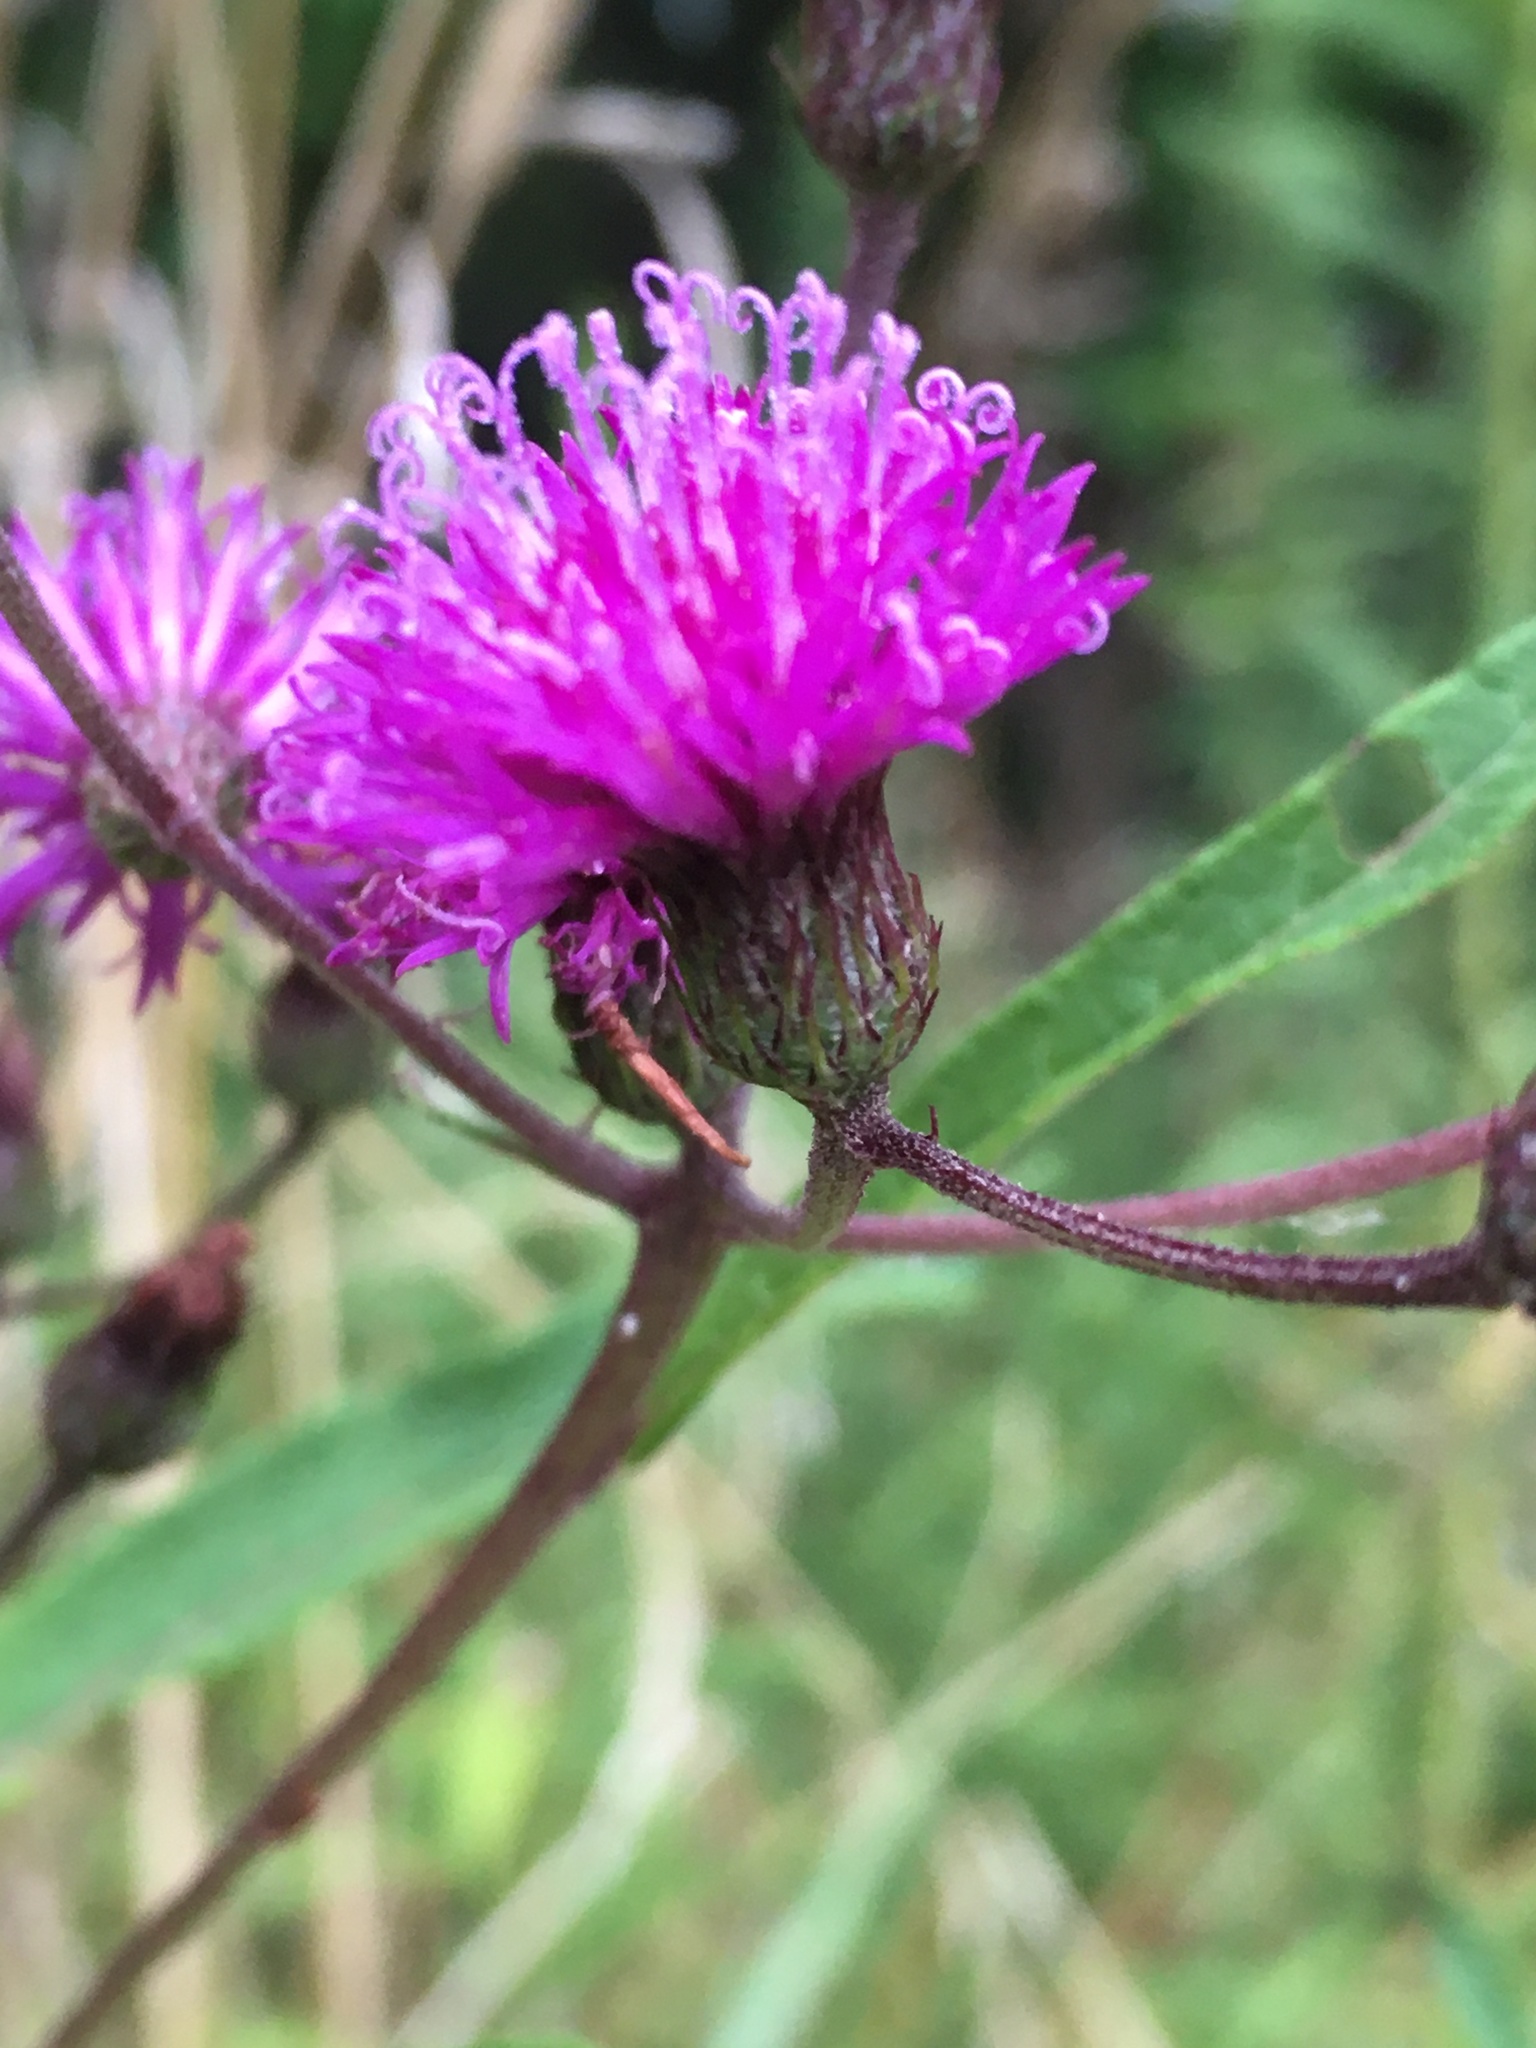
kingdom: Plantae
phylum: Tracheophyta
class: Magnoliopsida
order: Asterales
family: Asteraceae
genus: Vernonia
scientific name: Vernonia gigantea
